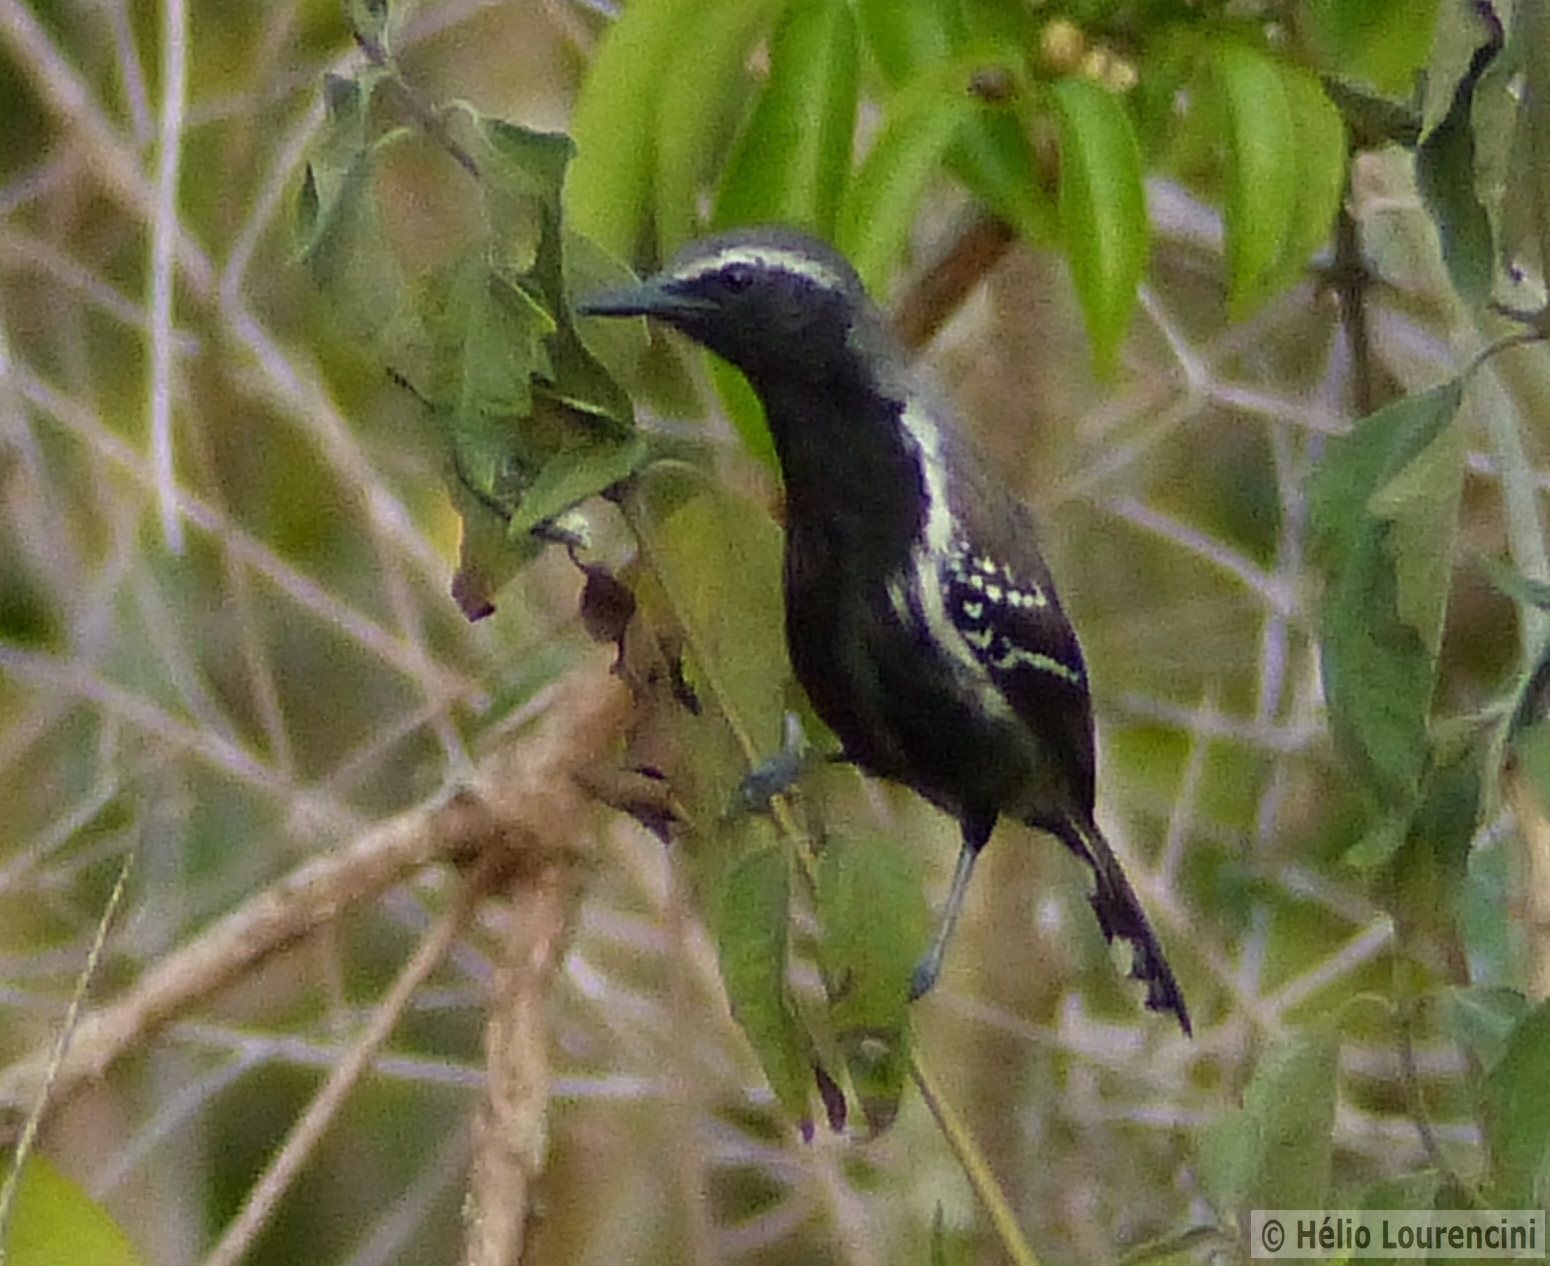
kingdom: Animalia
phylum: Chordata
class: Aves
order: Passeriformes
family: Thamnophilidae
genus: Formicivora
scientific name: Formicivora grisea
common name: Southern white-fringed antwren
